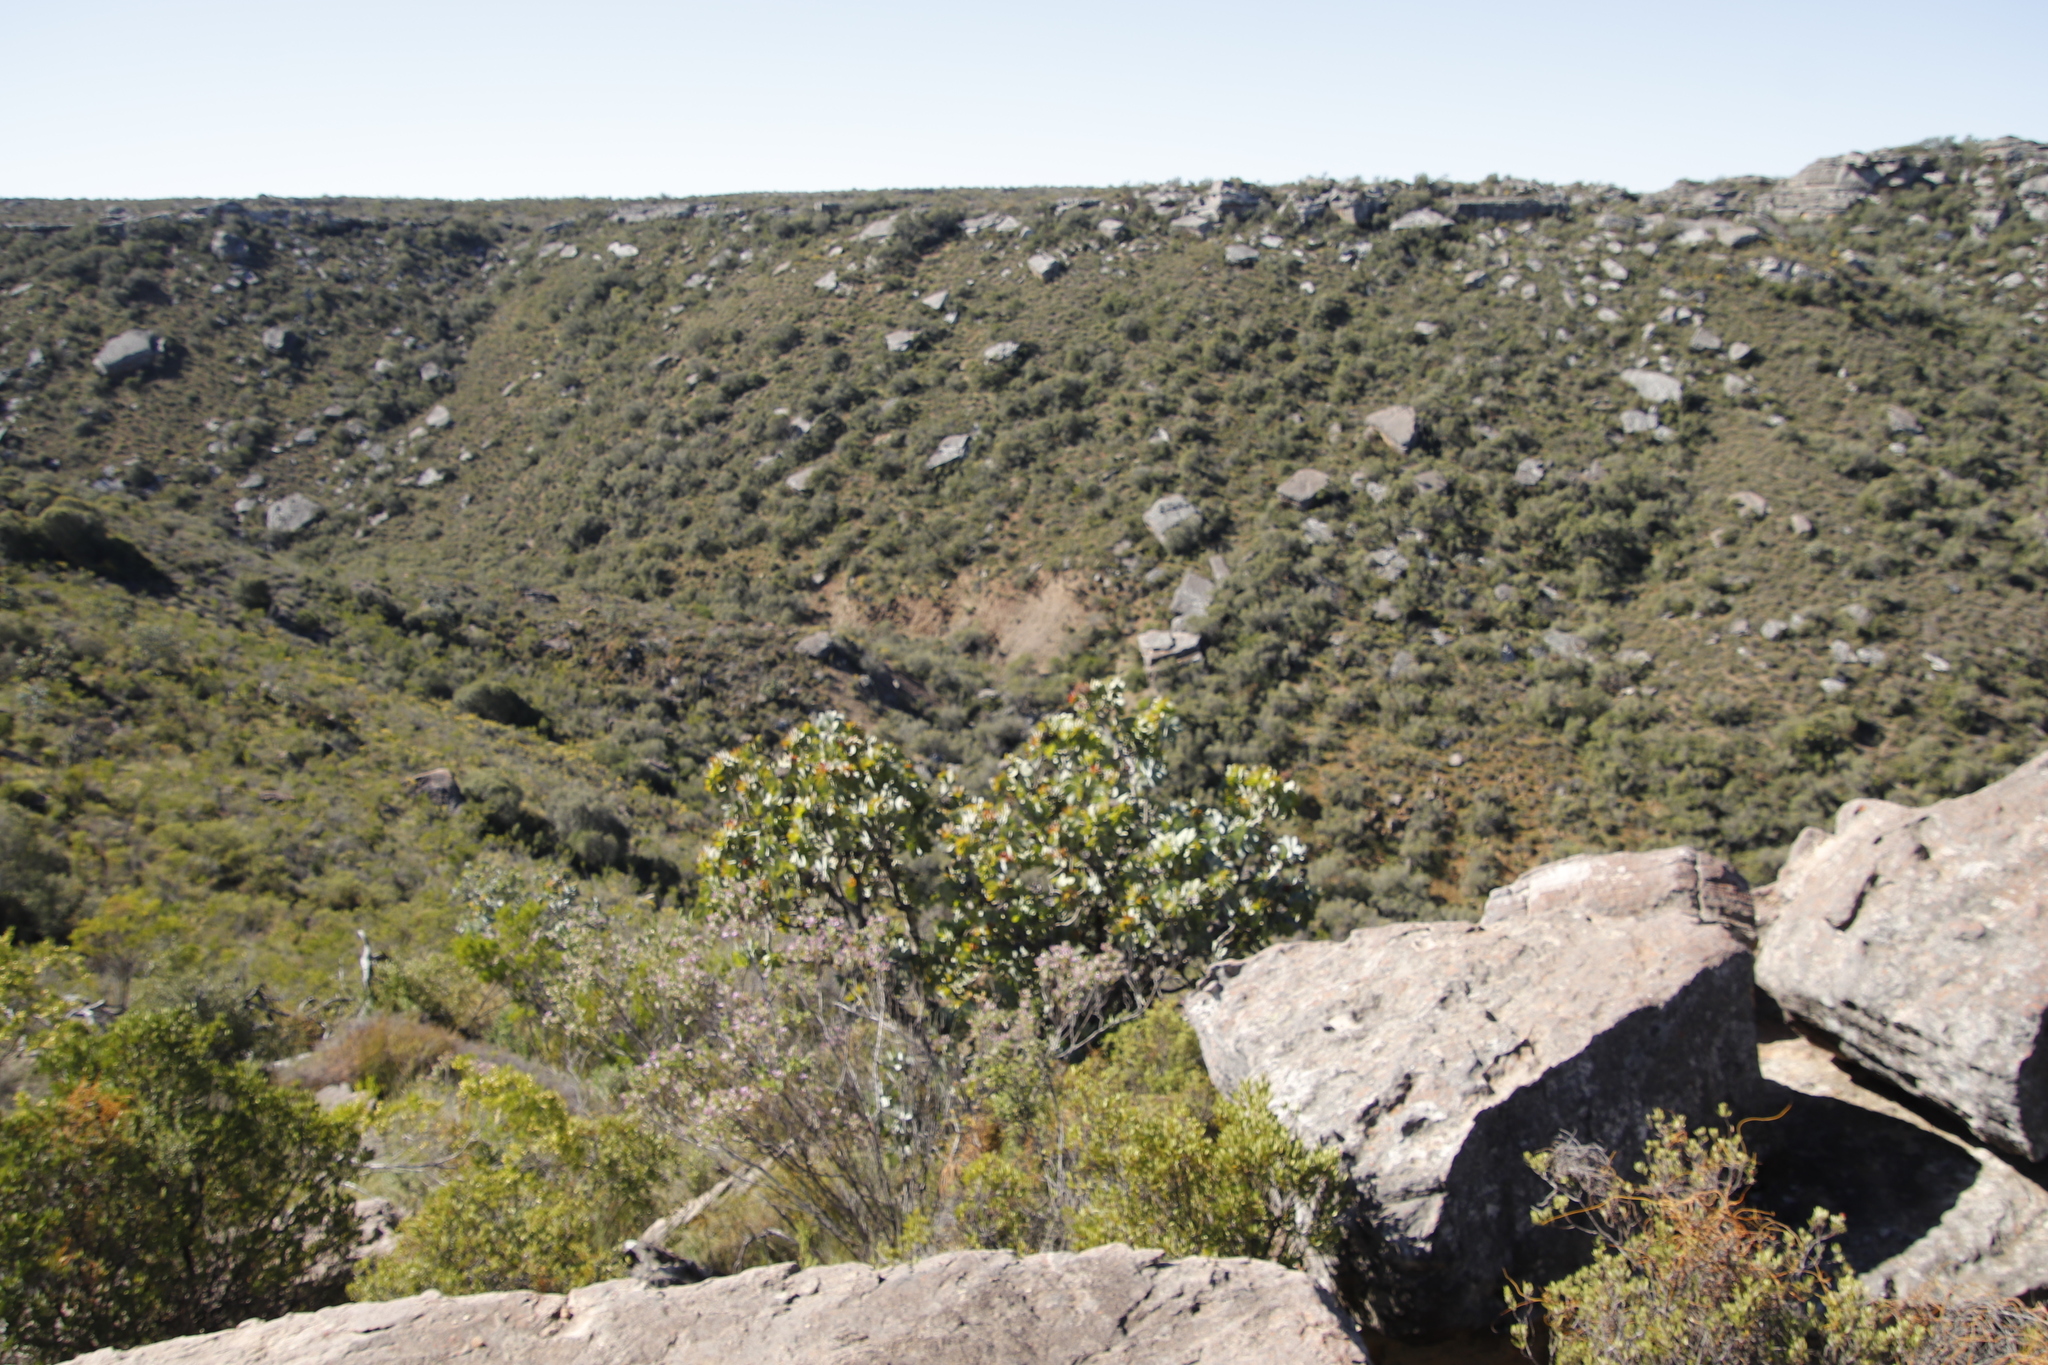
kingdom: Plantae
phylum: Tracheophyta
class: Magnoliopsida
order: Proteales
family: Proteaceae
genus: Protea
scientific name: Protea nitida
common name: Tree protea
